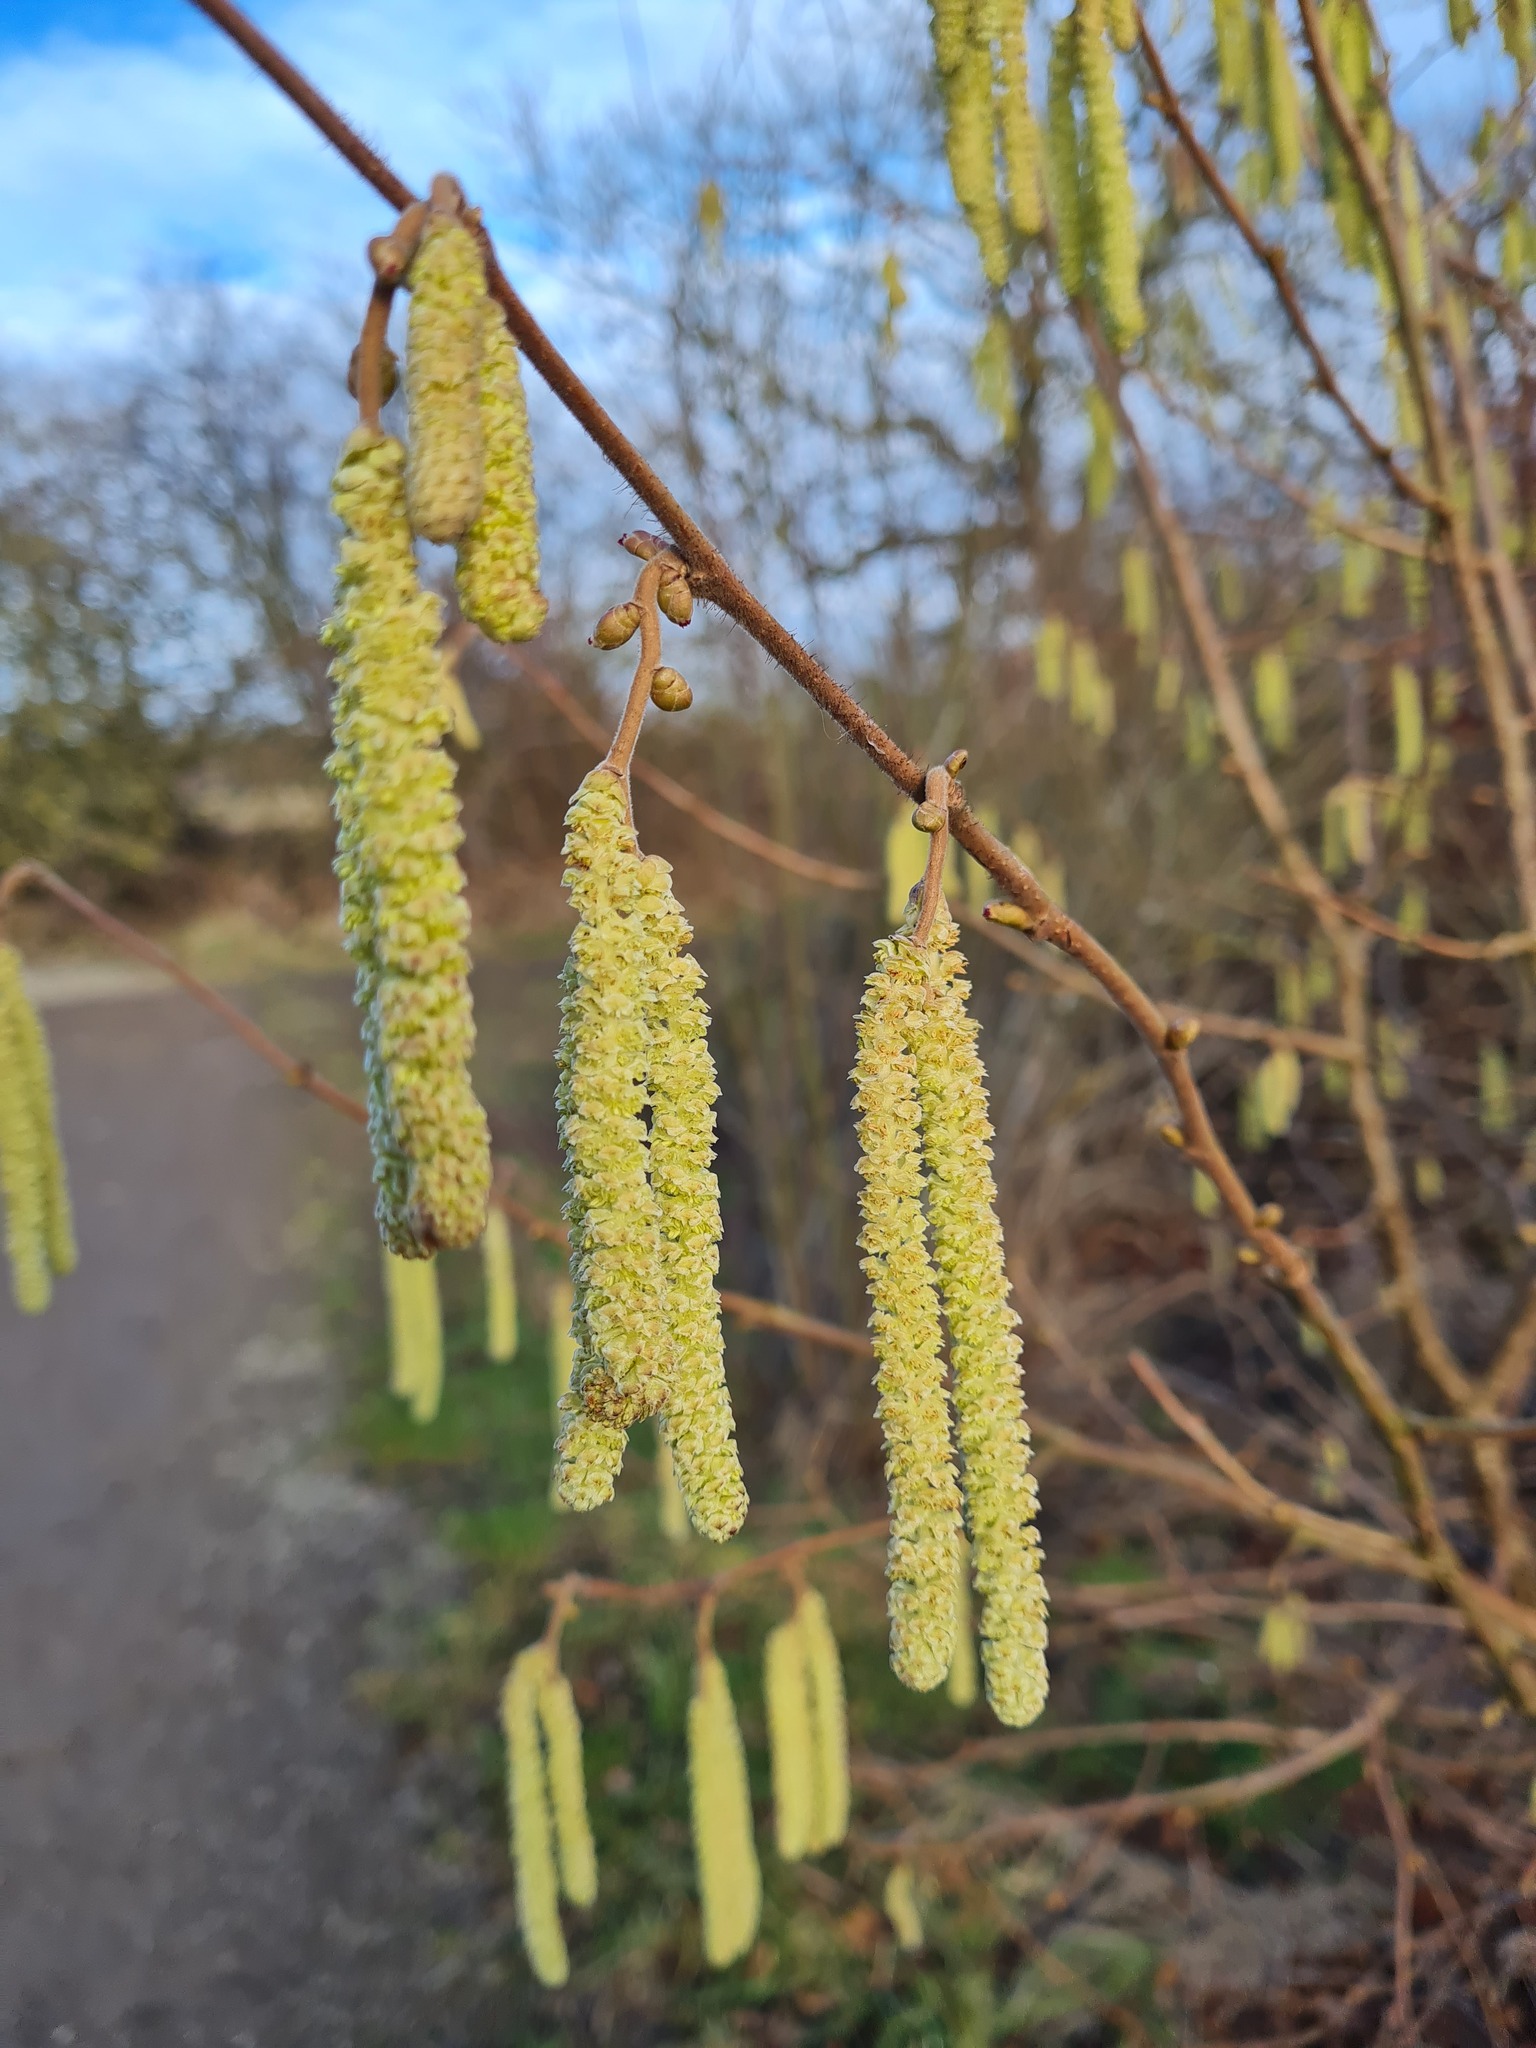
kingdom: Plantae
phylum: Tracheophyta
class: Magnoliopsida
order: Fagales
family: Betulaceae
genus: Corylus
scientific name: Corylus avellana
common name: European hazel
